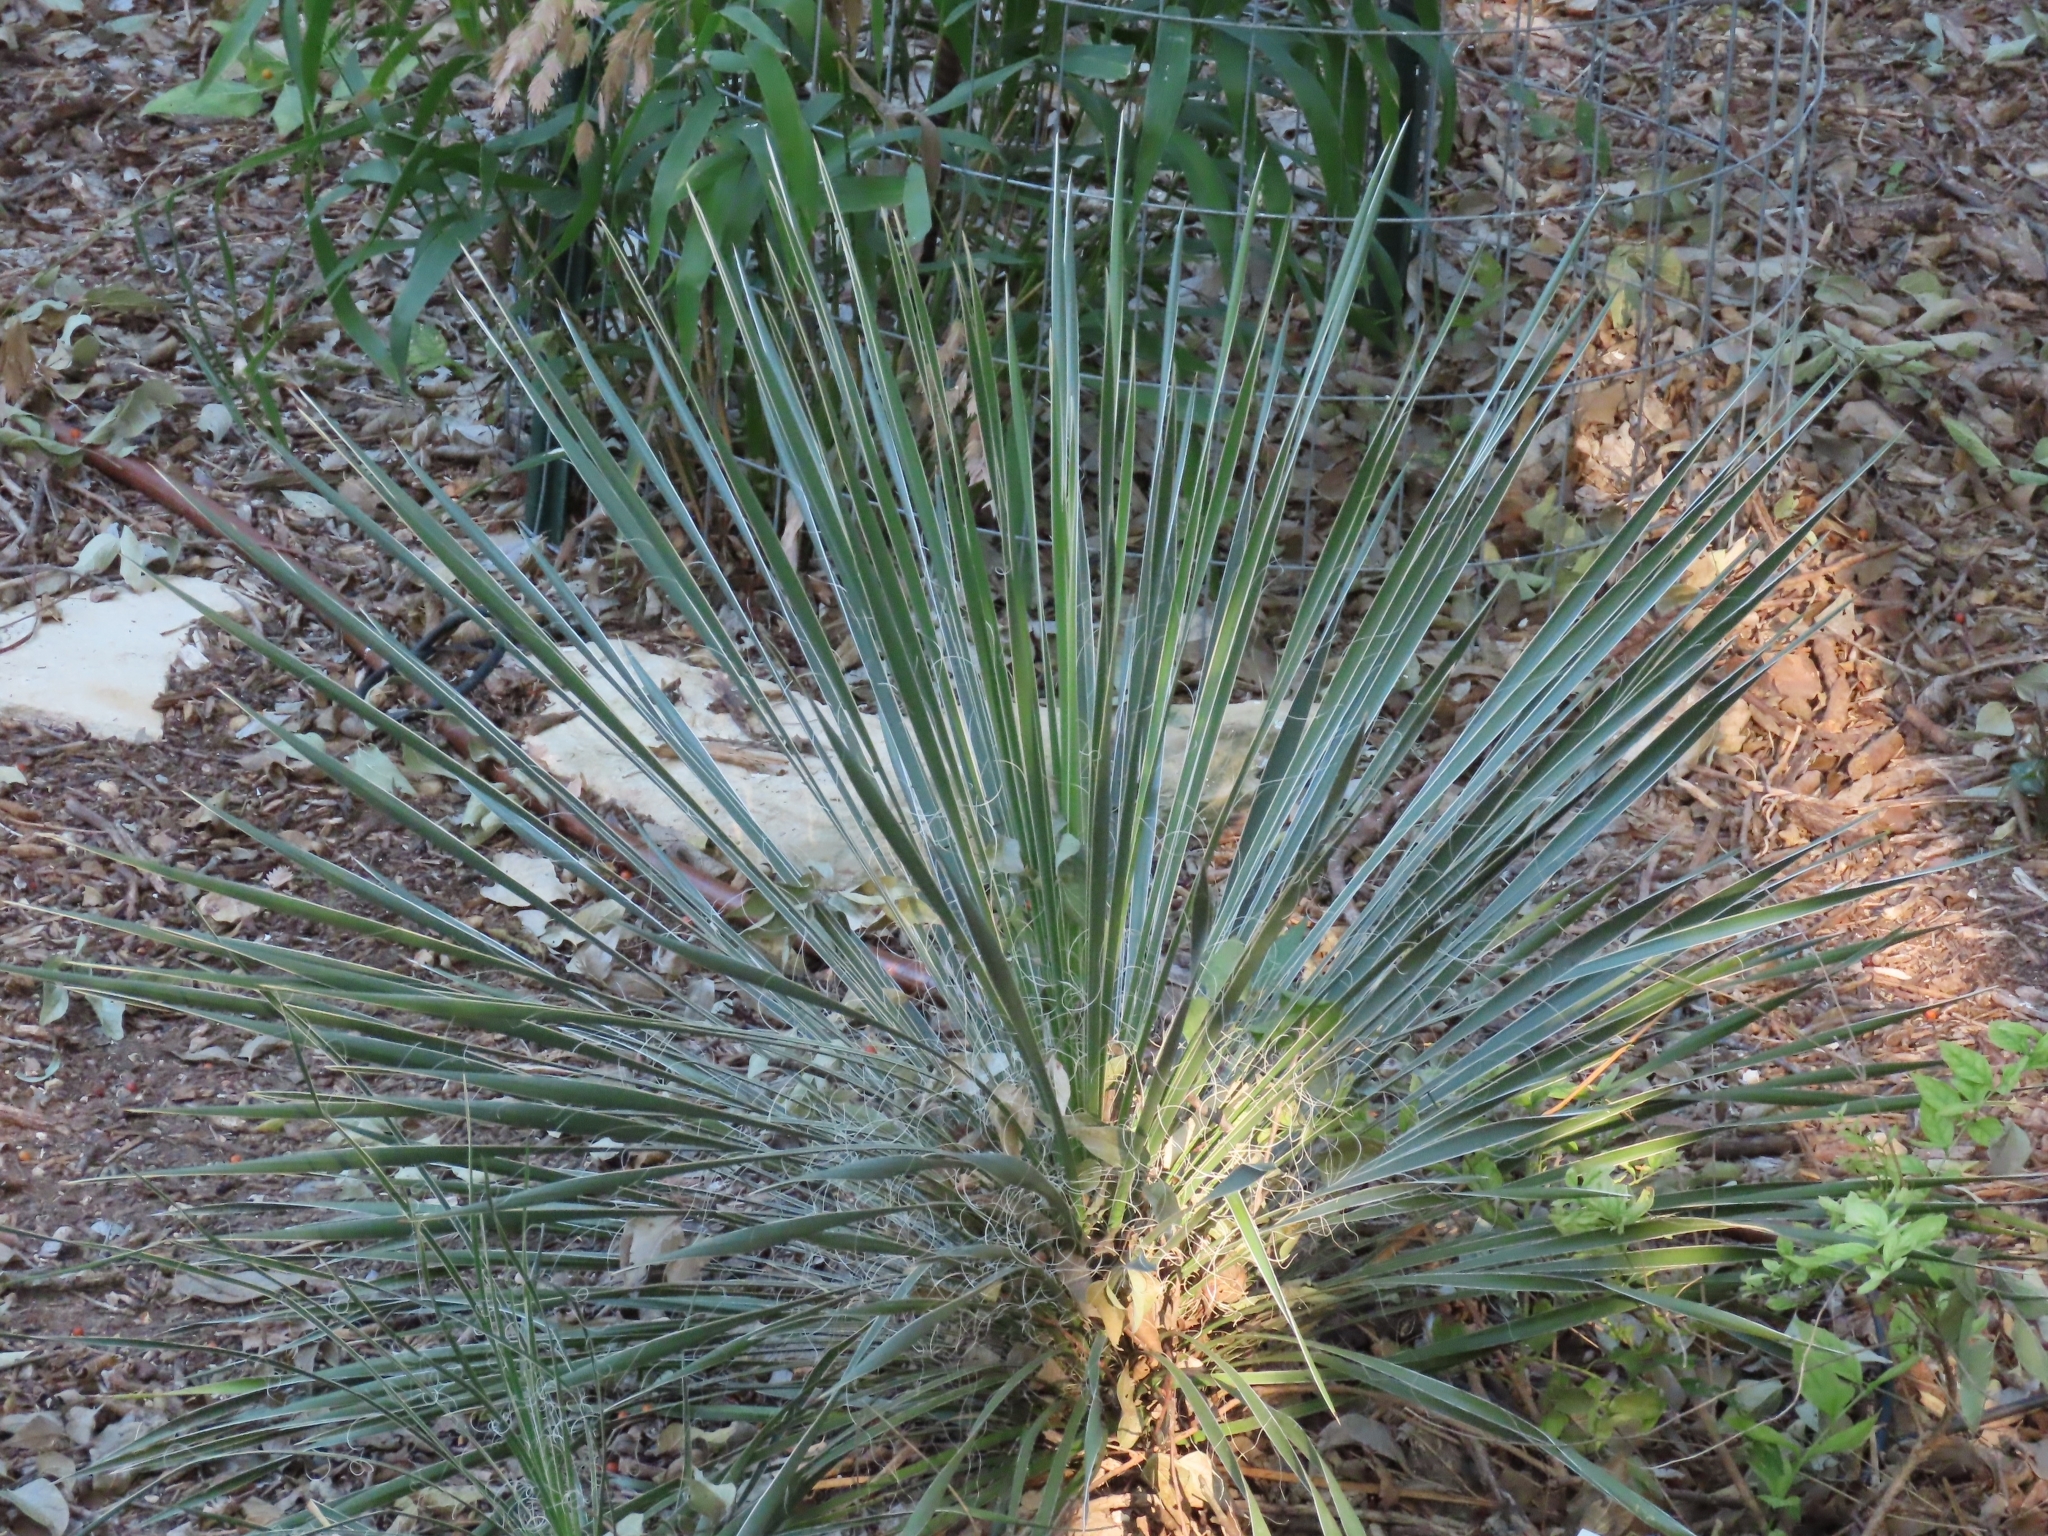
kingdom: Plantae
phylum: Tracheophyta
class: Liliopsida
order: Asparagales
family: Asparagaceae
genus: Yucca
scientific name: Yucca constricta
